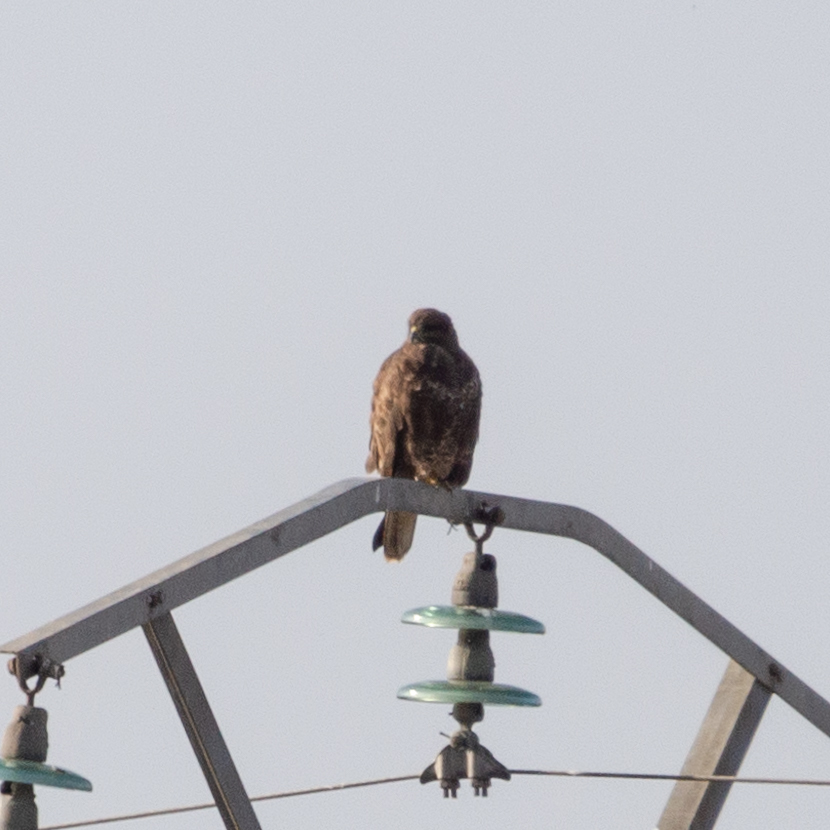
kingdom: Animalia
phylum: Chordata
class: Aves
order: Accipitriformes
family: Accipitridae
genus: Buteo
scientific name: Buteo buteo
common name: Common buzzard
